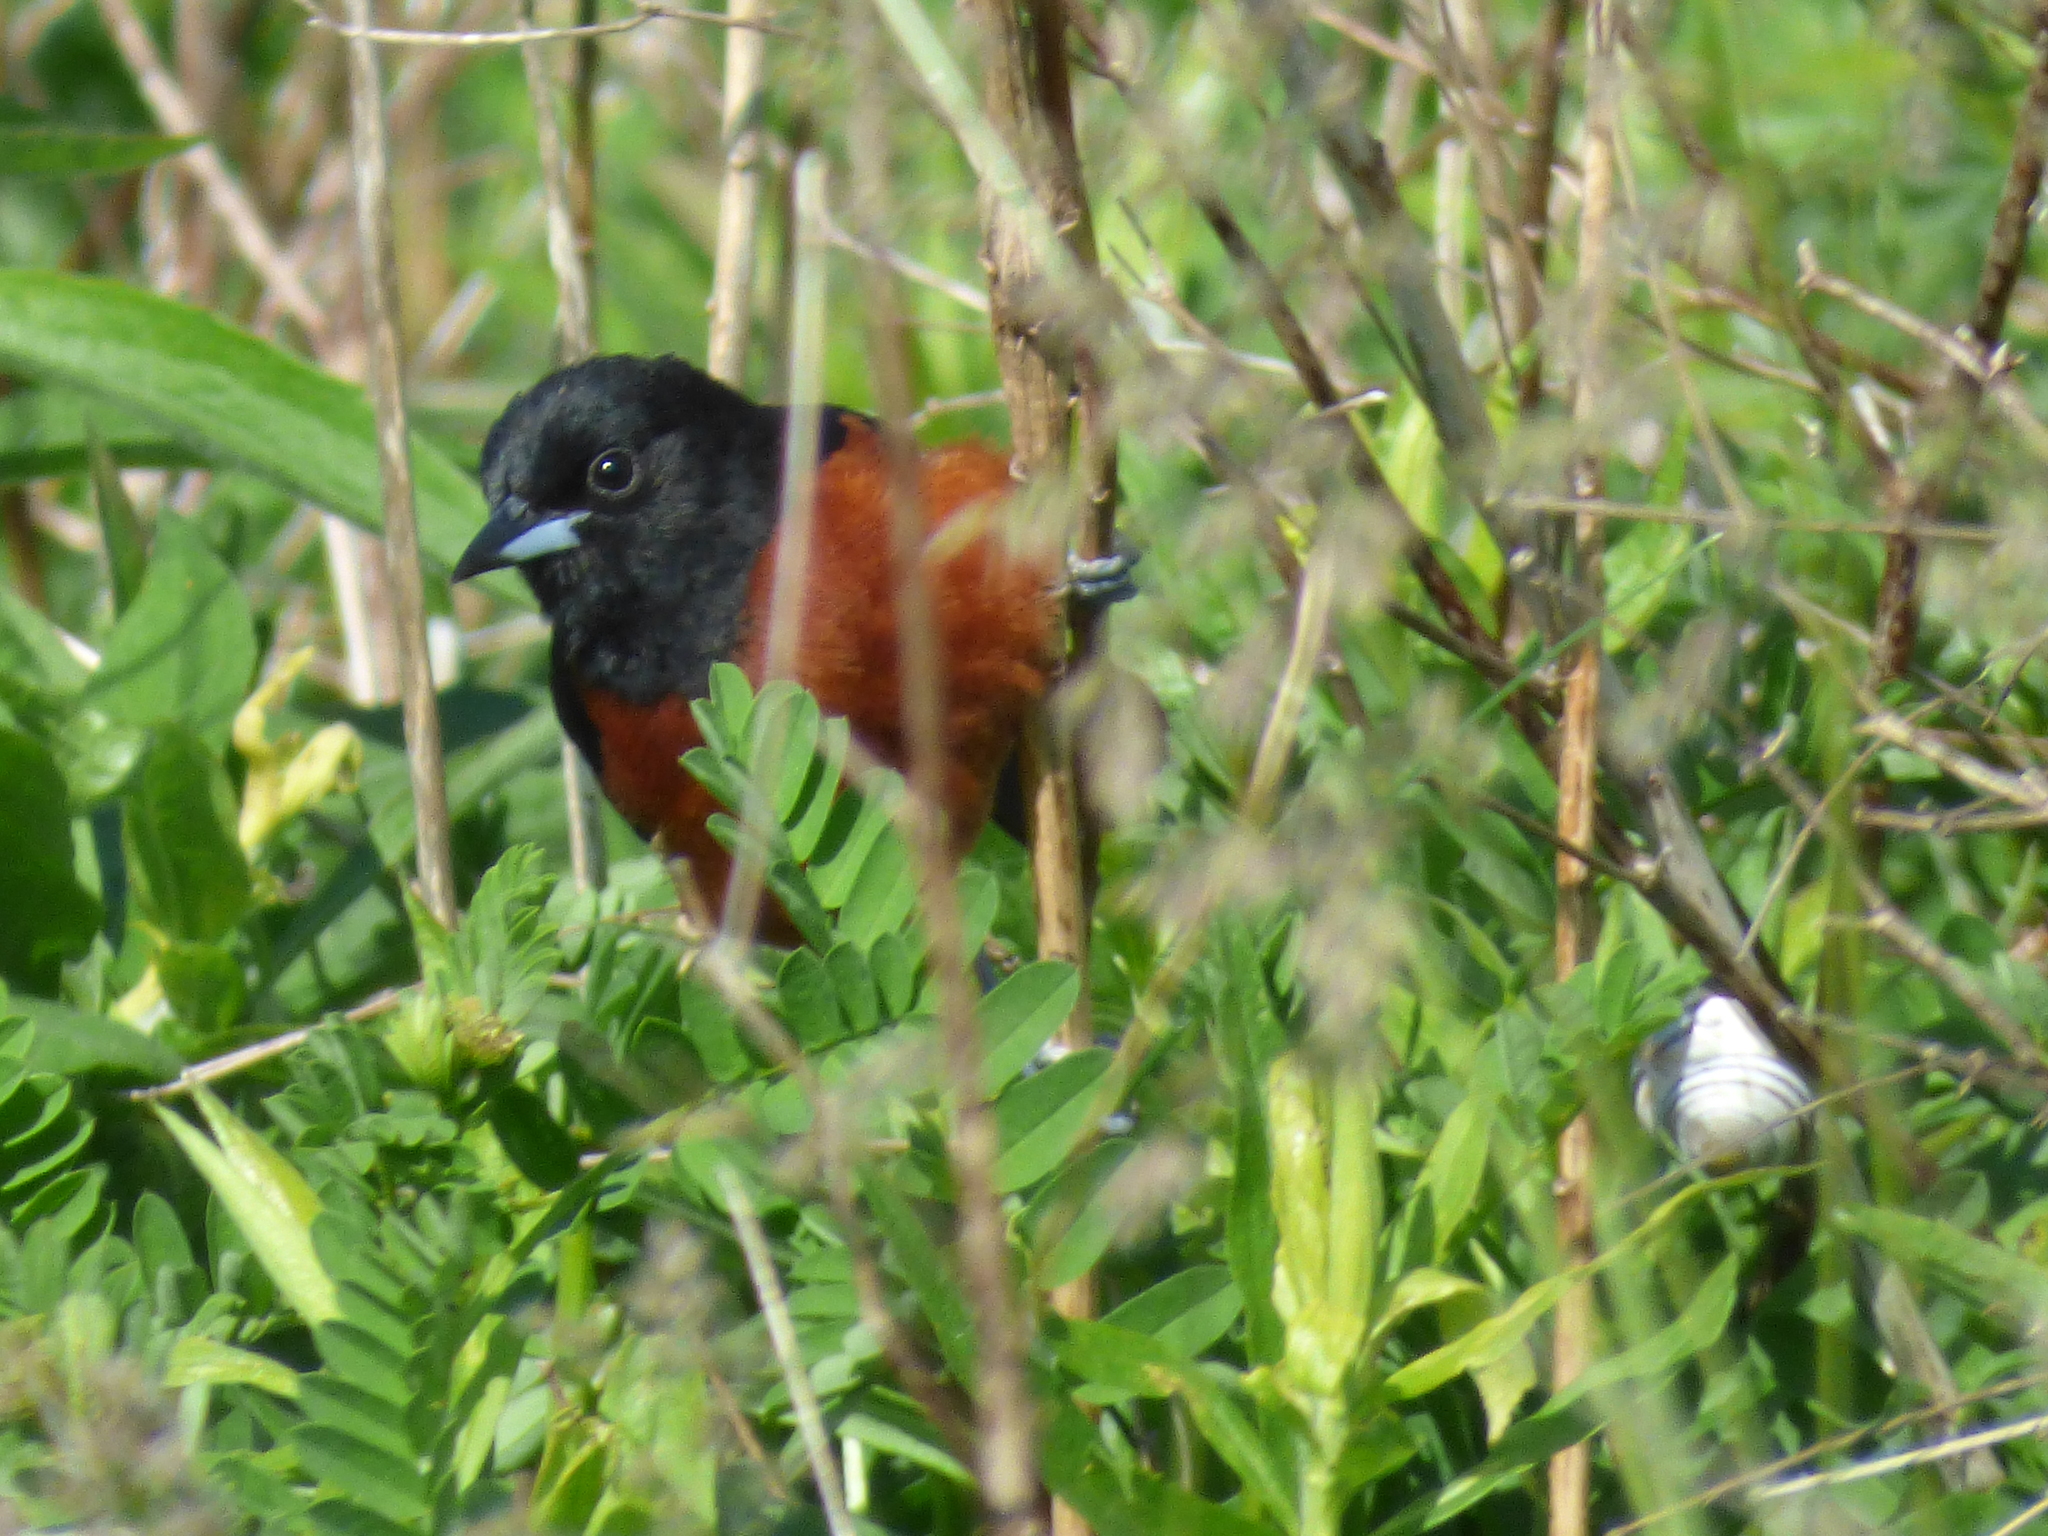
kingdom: Animalia
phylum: Chordata
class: Aves
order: Passeriformes
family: Icteridae
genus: Icterus
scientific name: Icterus spurius
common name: Orchard oriole
